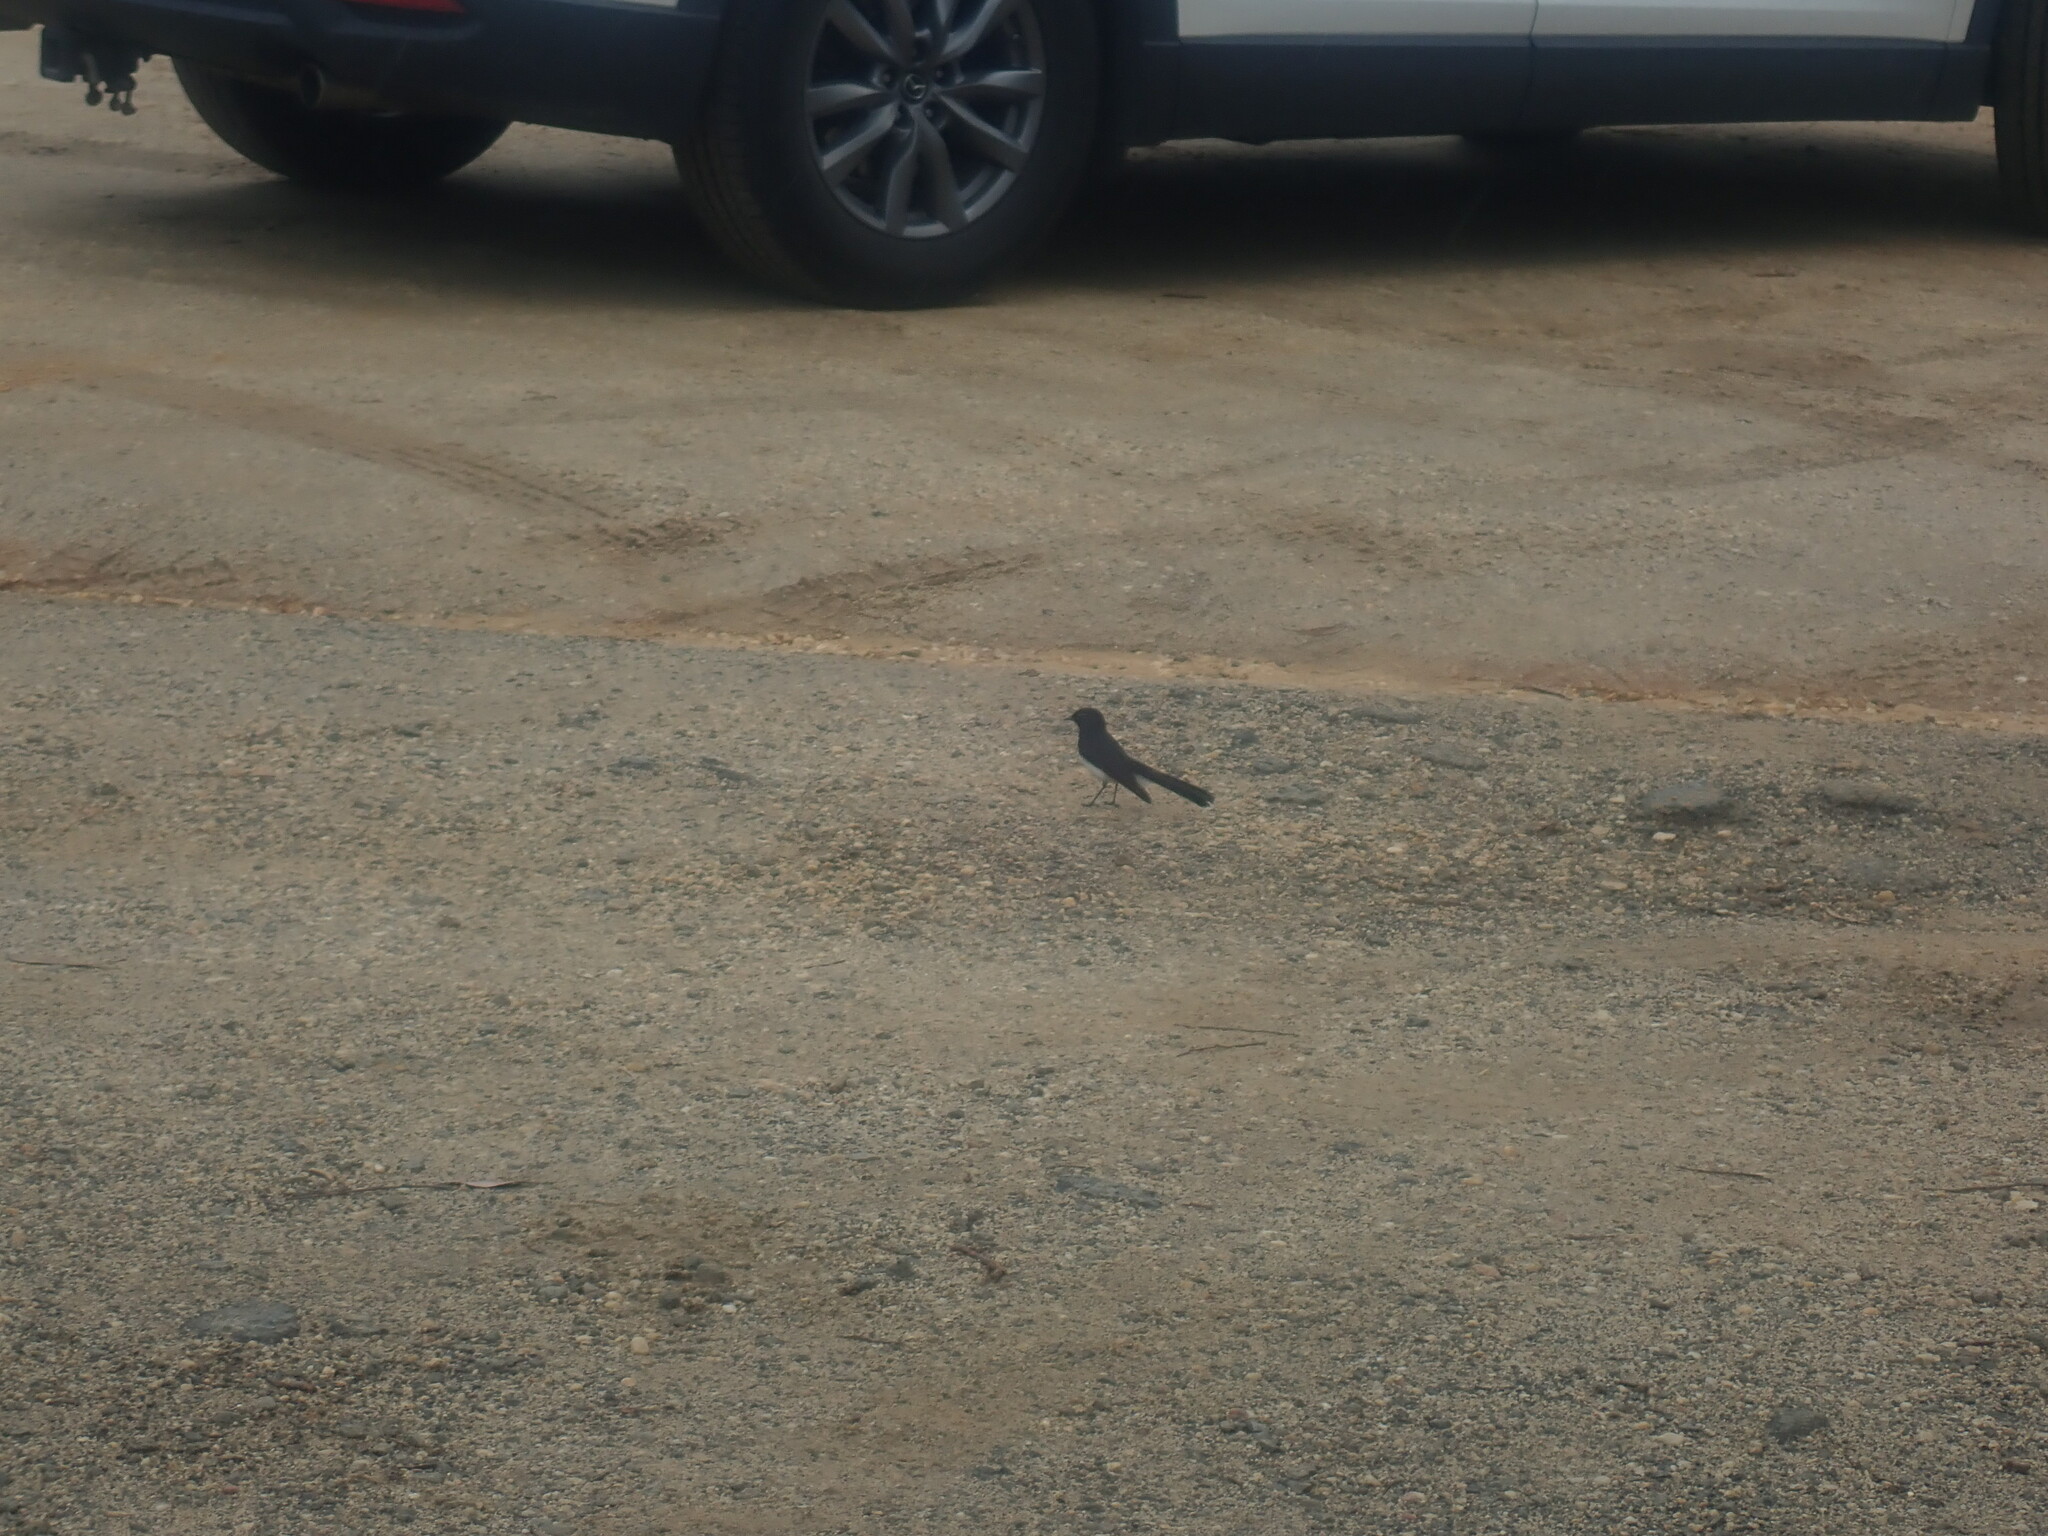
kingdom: Animalia
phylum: Chordata
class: Aves
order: Passeriformes
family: Rhipiduridae
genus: Rhipidura
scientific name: Rhipidura leucophrys
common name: Willie wagtail
